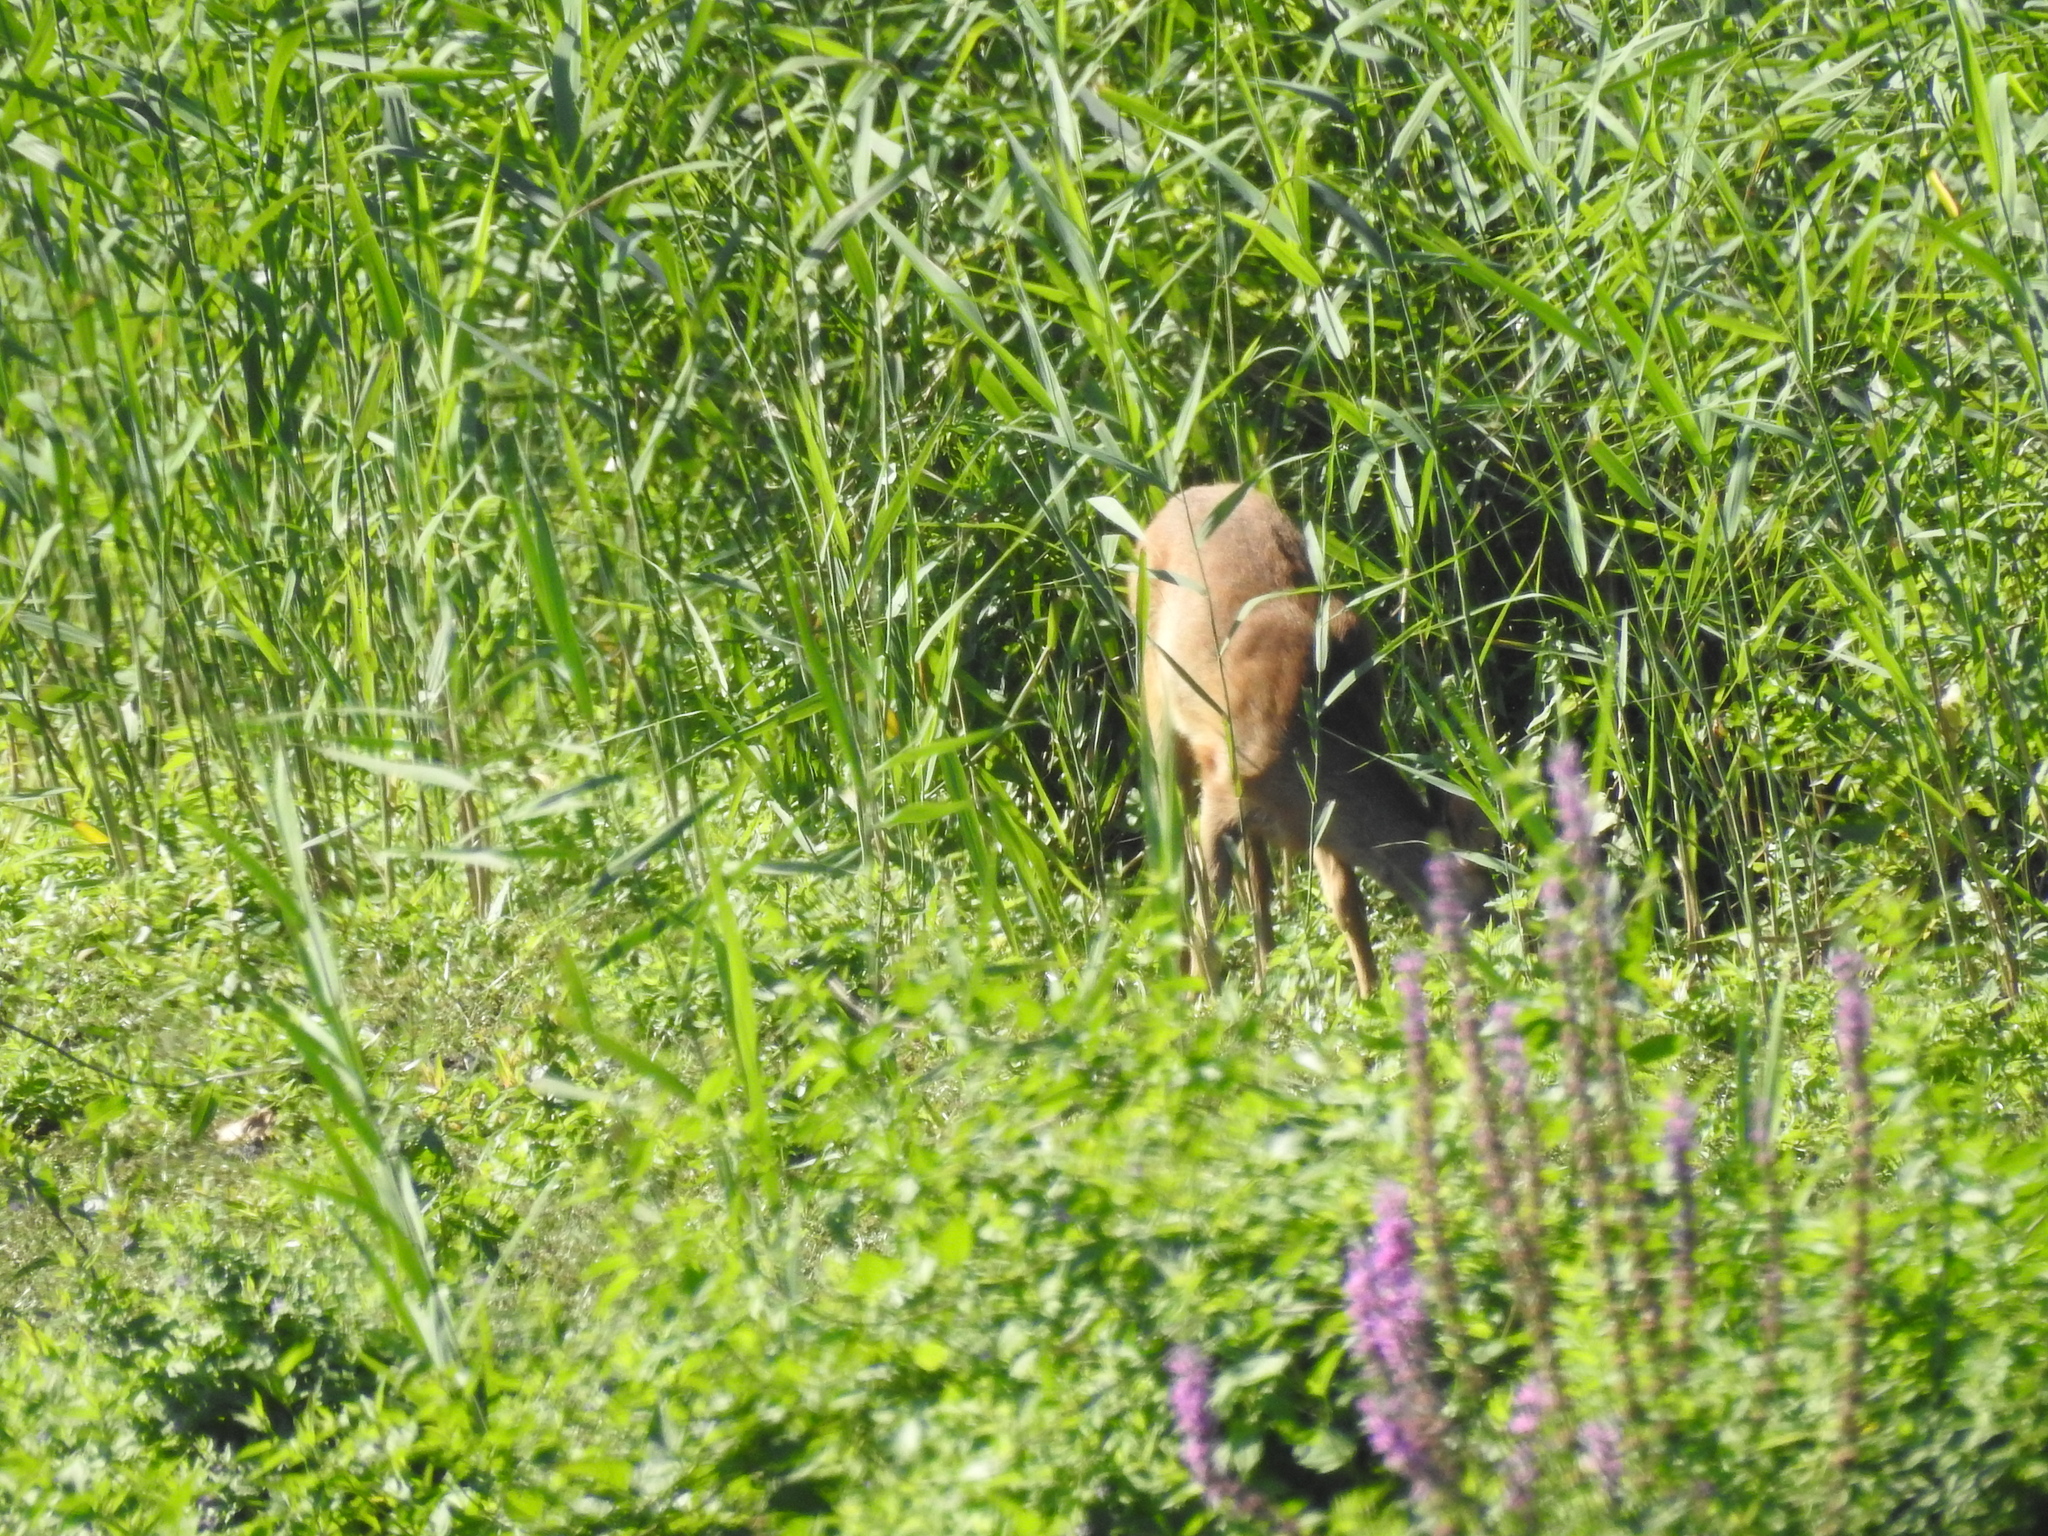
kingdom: Animalia
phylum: Chordata
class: Mammalia
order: Artiodactyla
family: Cervidae
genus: Capreolus
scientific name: Capreolus capreolus
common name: Western roe deer
